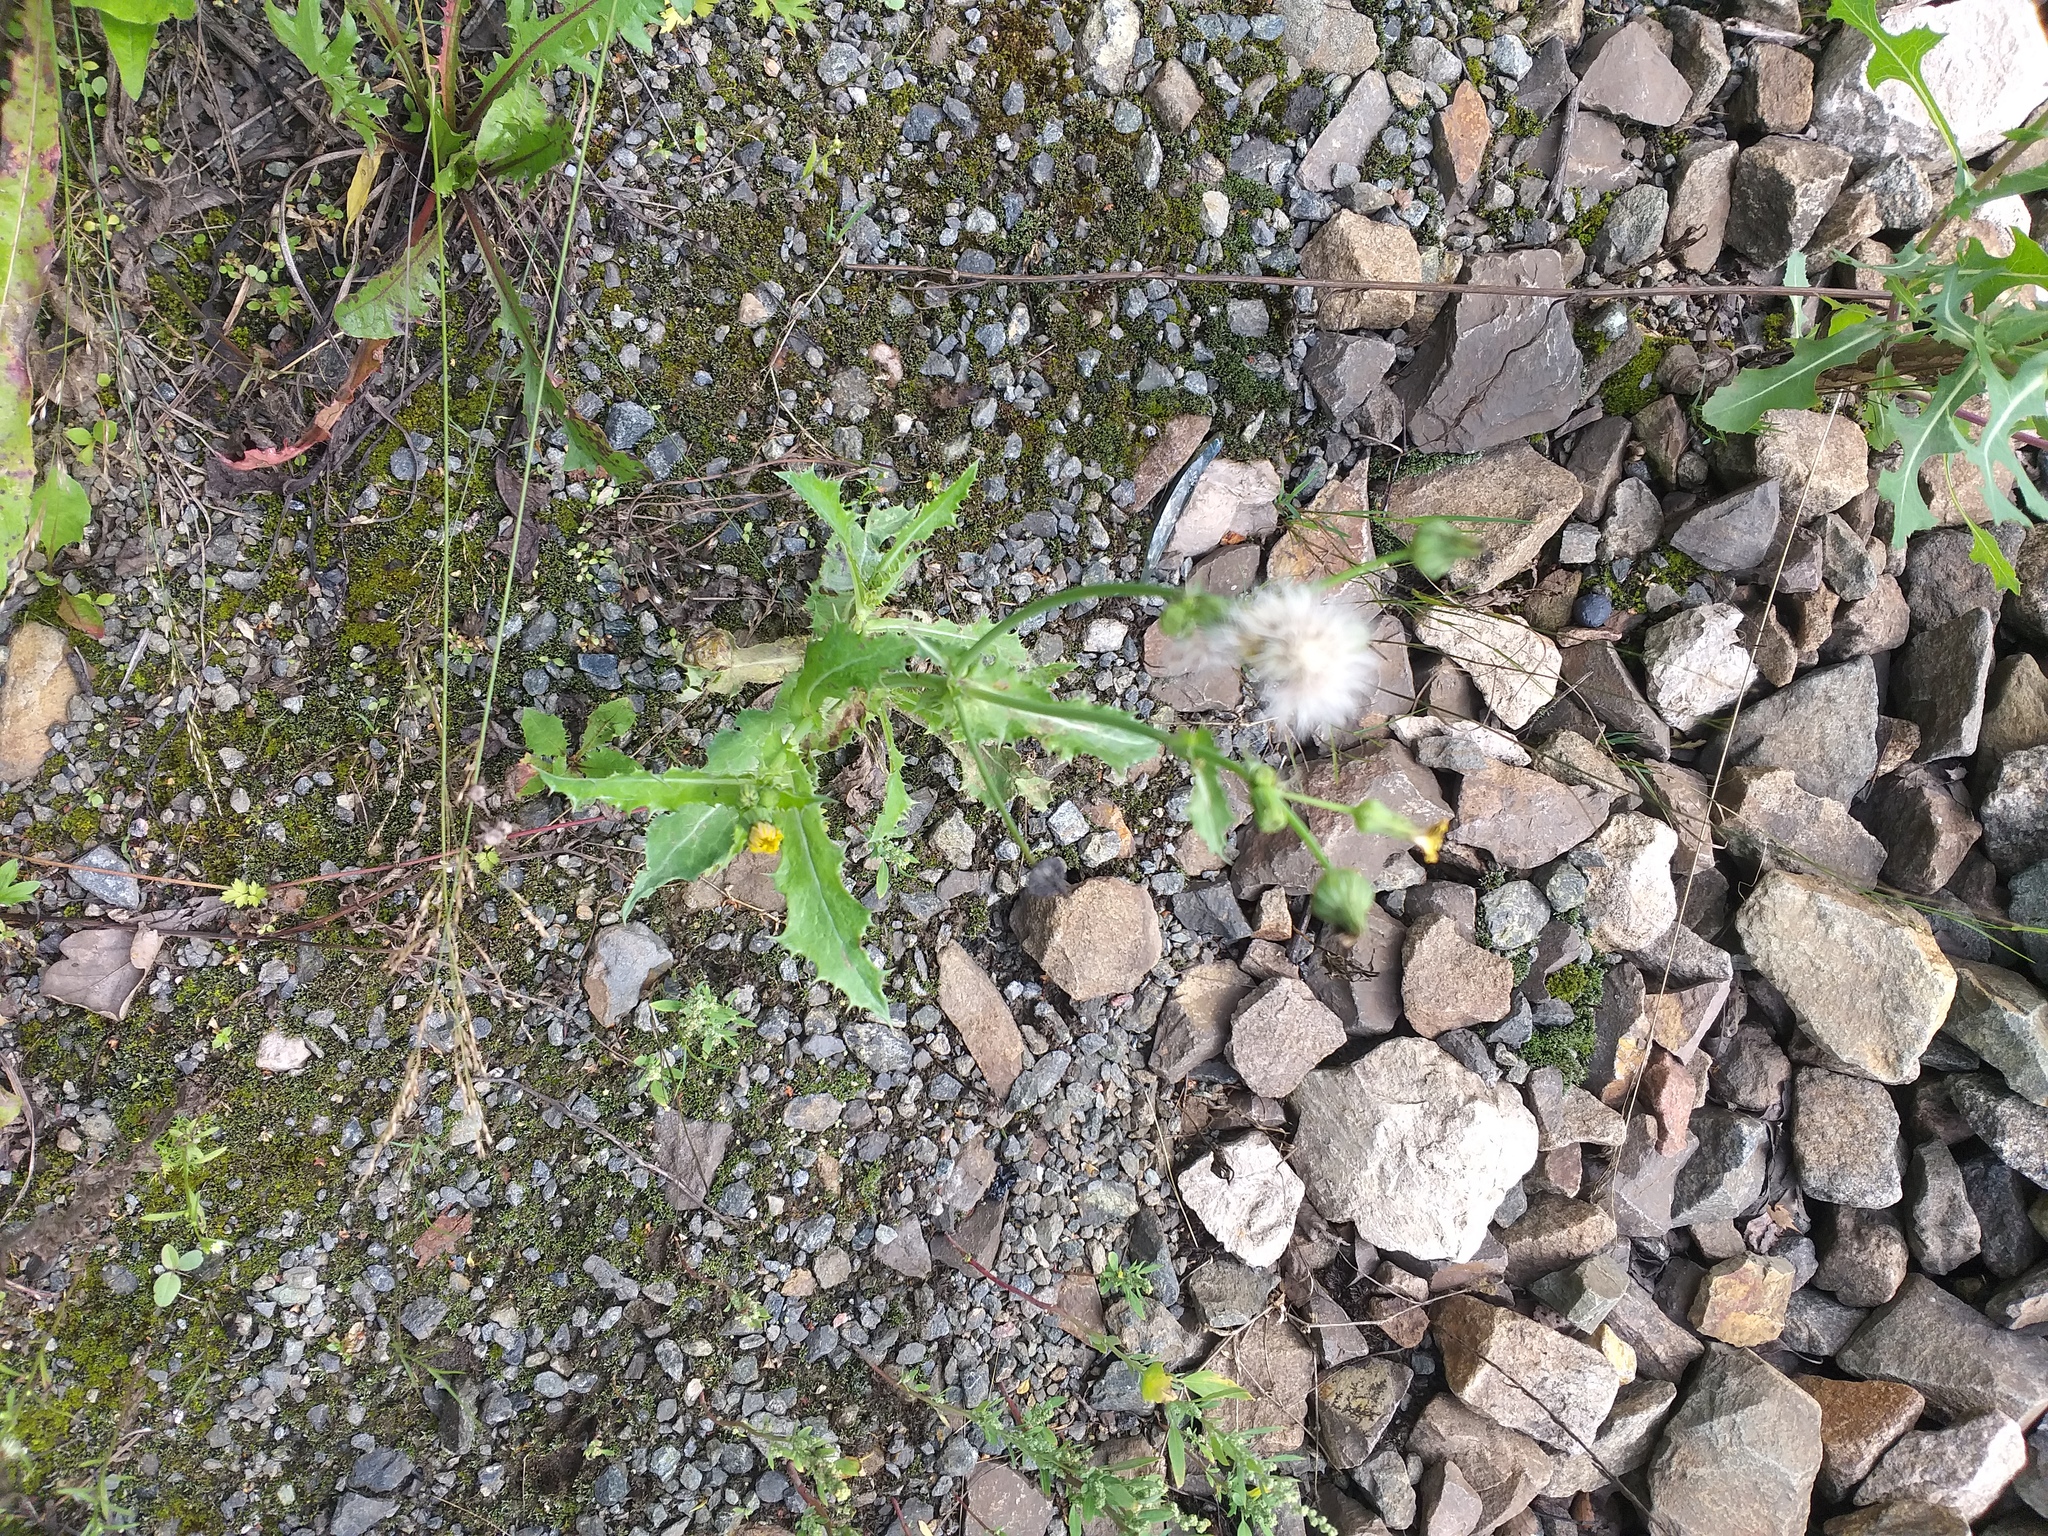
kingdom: Plantae
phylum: Tracheophyta
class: Magnoliopsida
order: Asterales
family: Asteraceae
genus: Sonchus
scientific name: Sonchus asper
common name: Prickly sow-thistle
